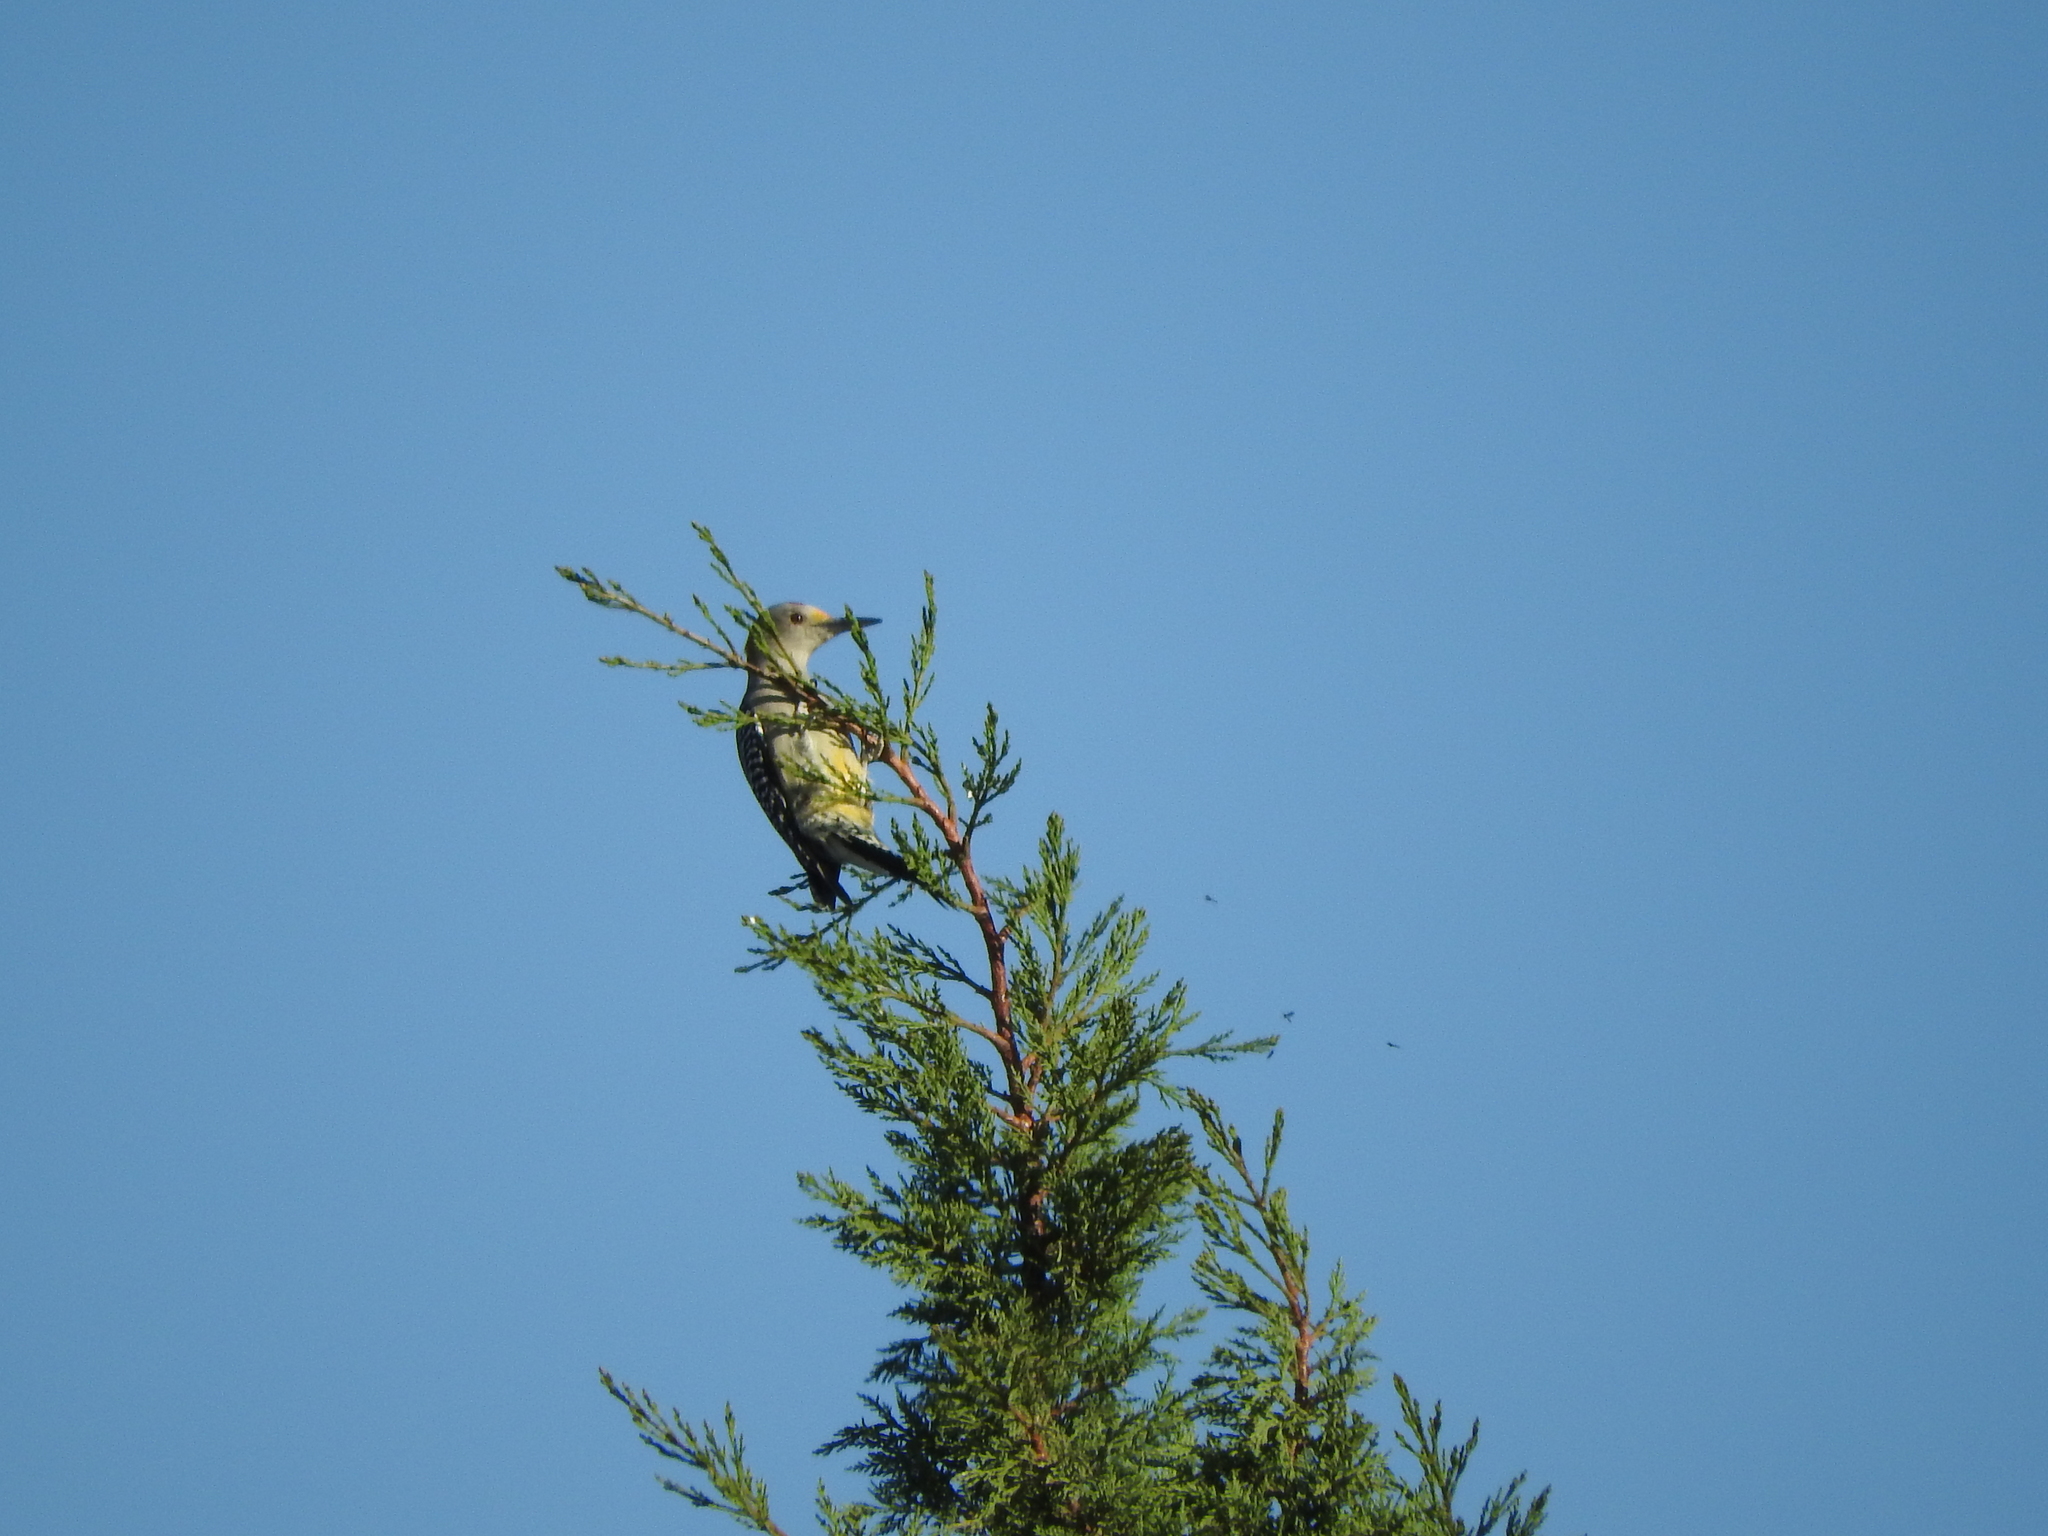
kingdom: Animalia
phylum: Chordata
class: Aves
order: Piciformes
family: Picidae
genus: Melanerpes
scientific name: Melanerpes aurifrons
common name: Golden-fronted woodpecker
